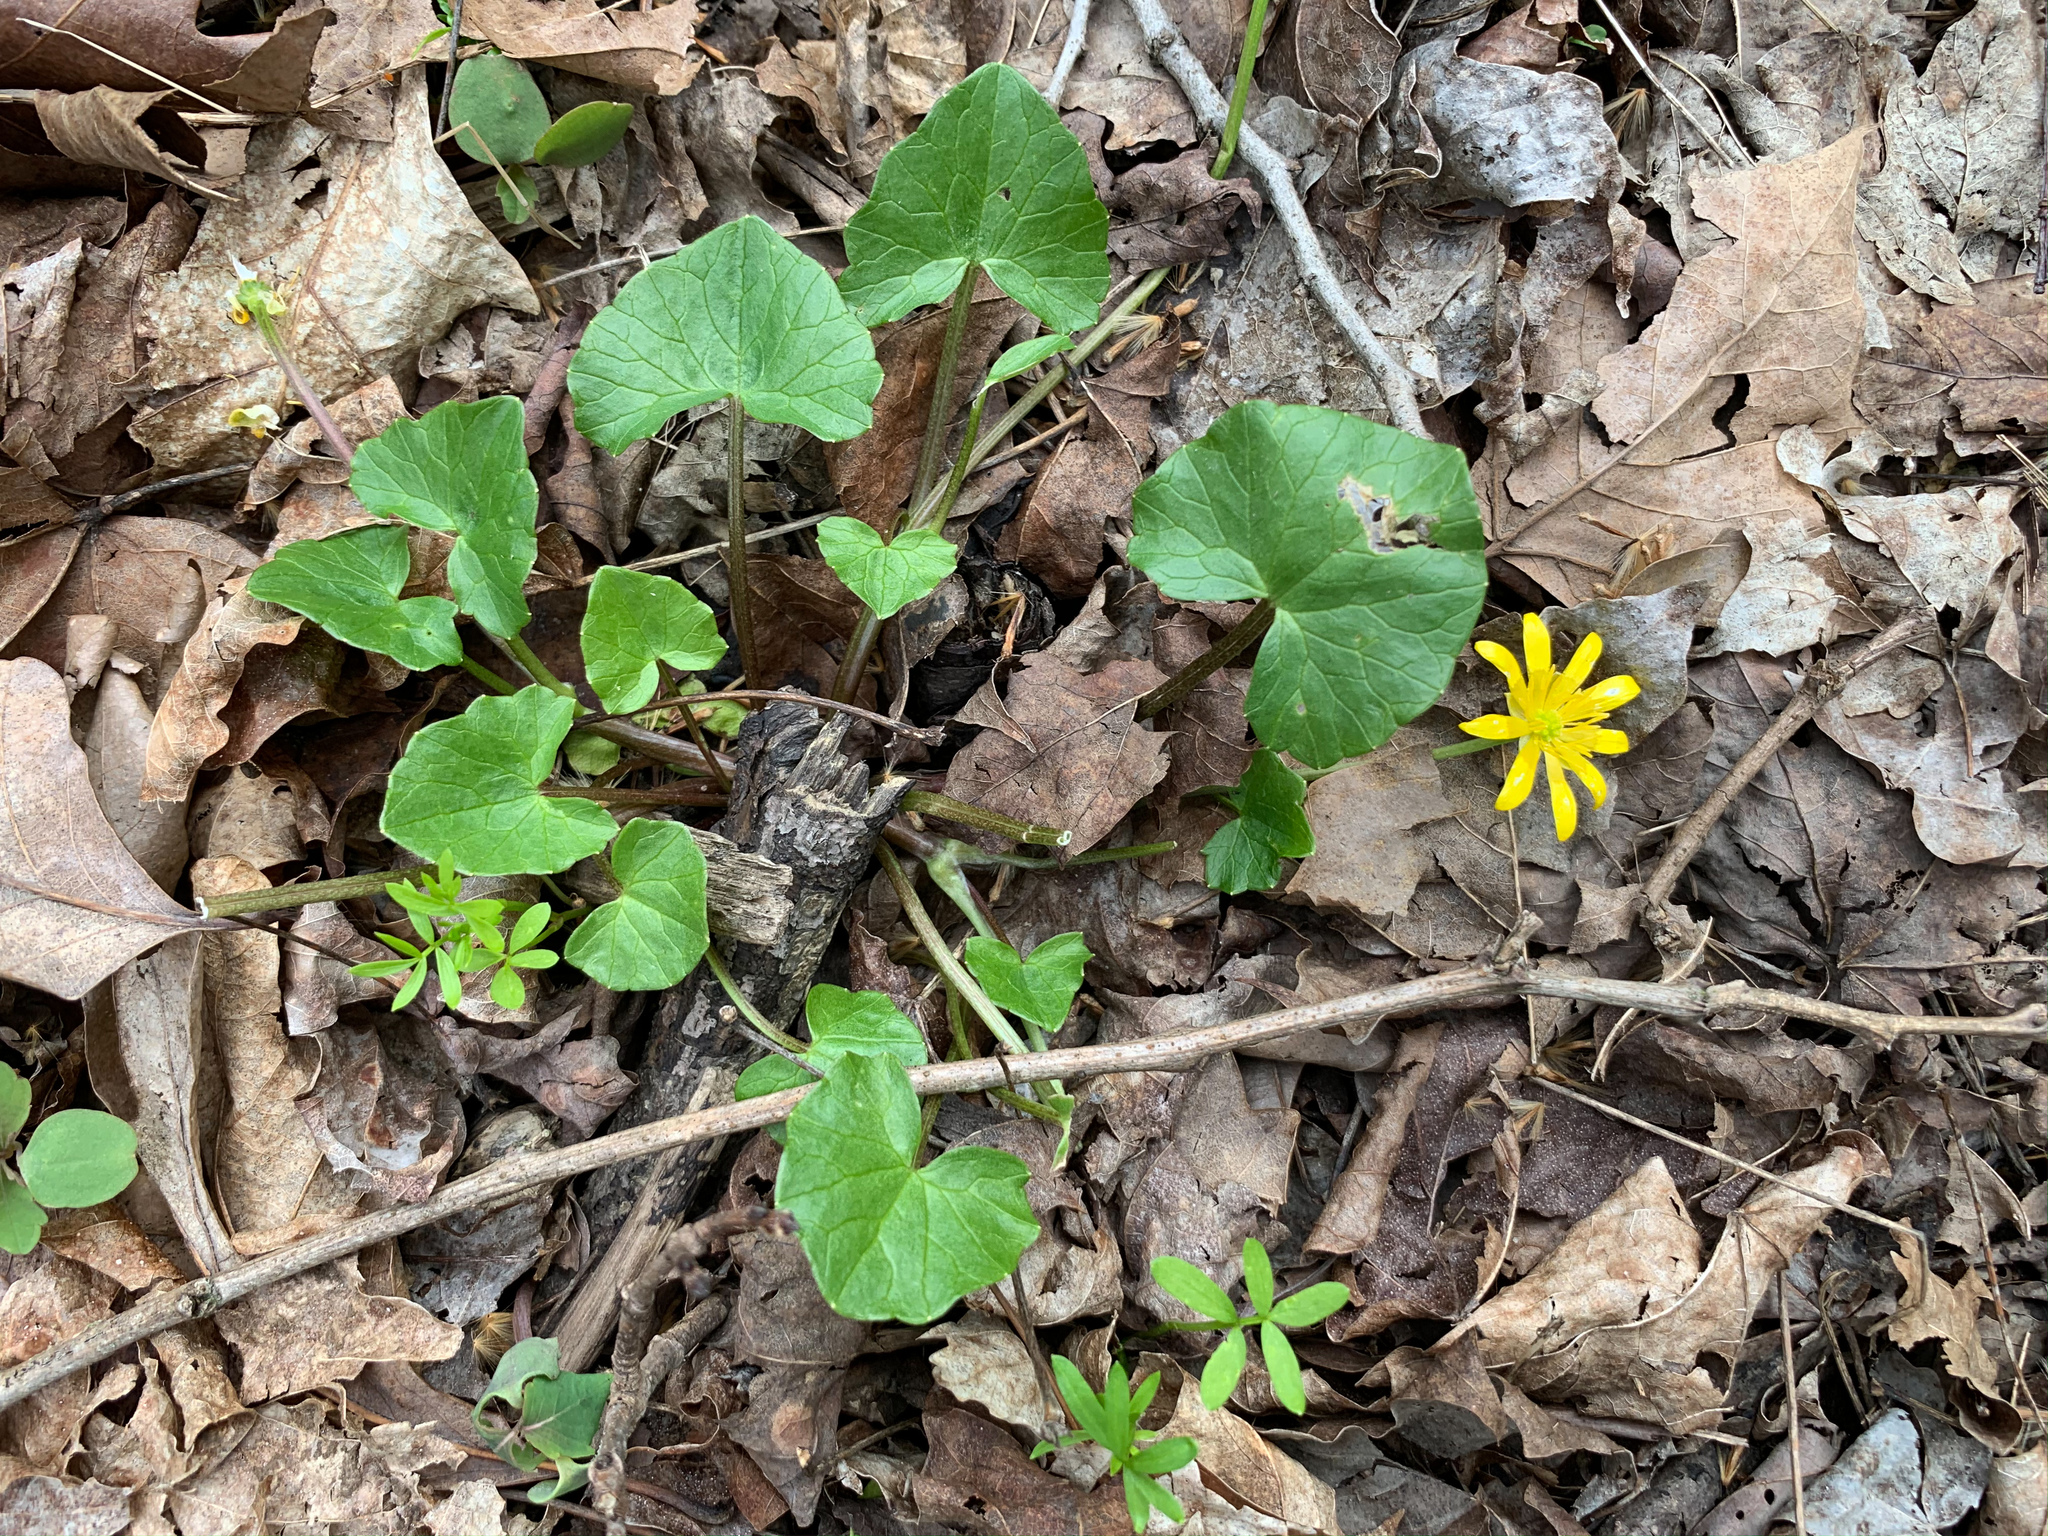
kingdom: Plantae
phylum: Tracheophyta
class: Magnoliopsida
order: Ranunculales
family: Ranunculaceae
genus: Ficaria
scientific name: Ficaria verna
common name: Lesser celandine
